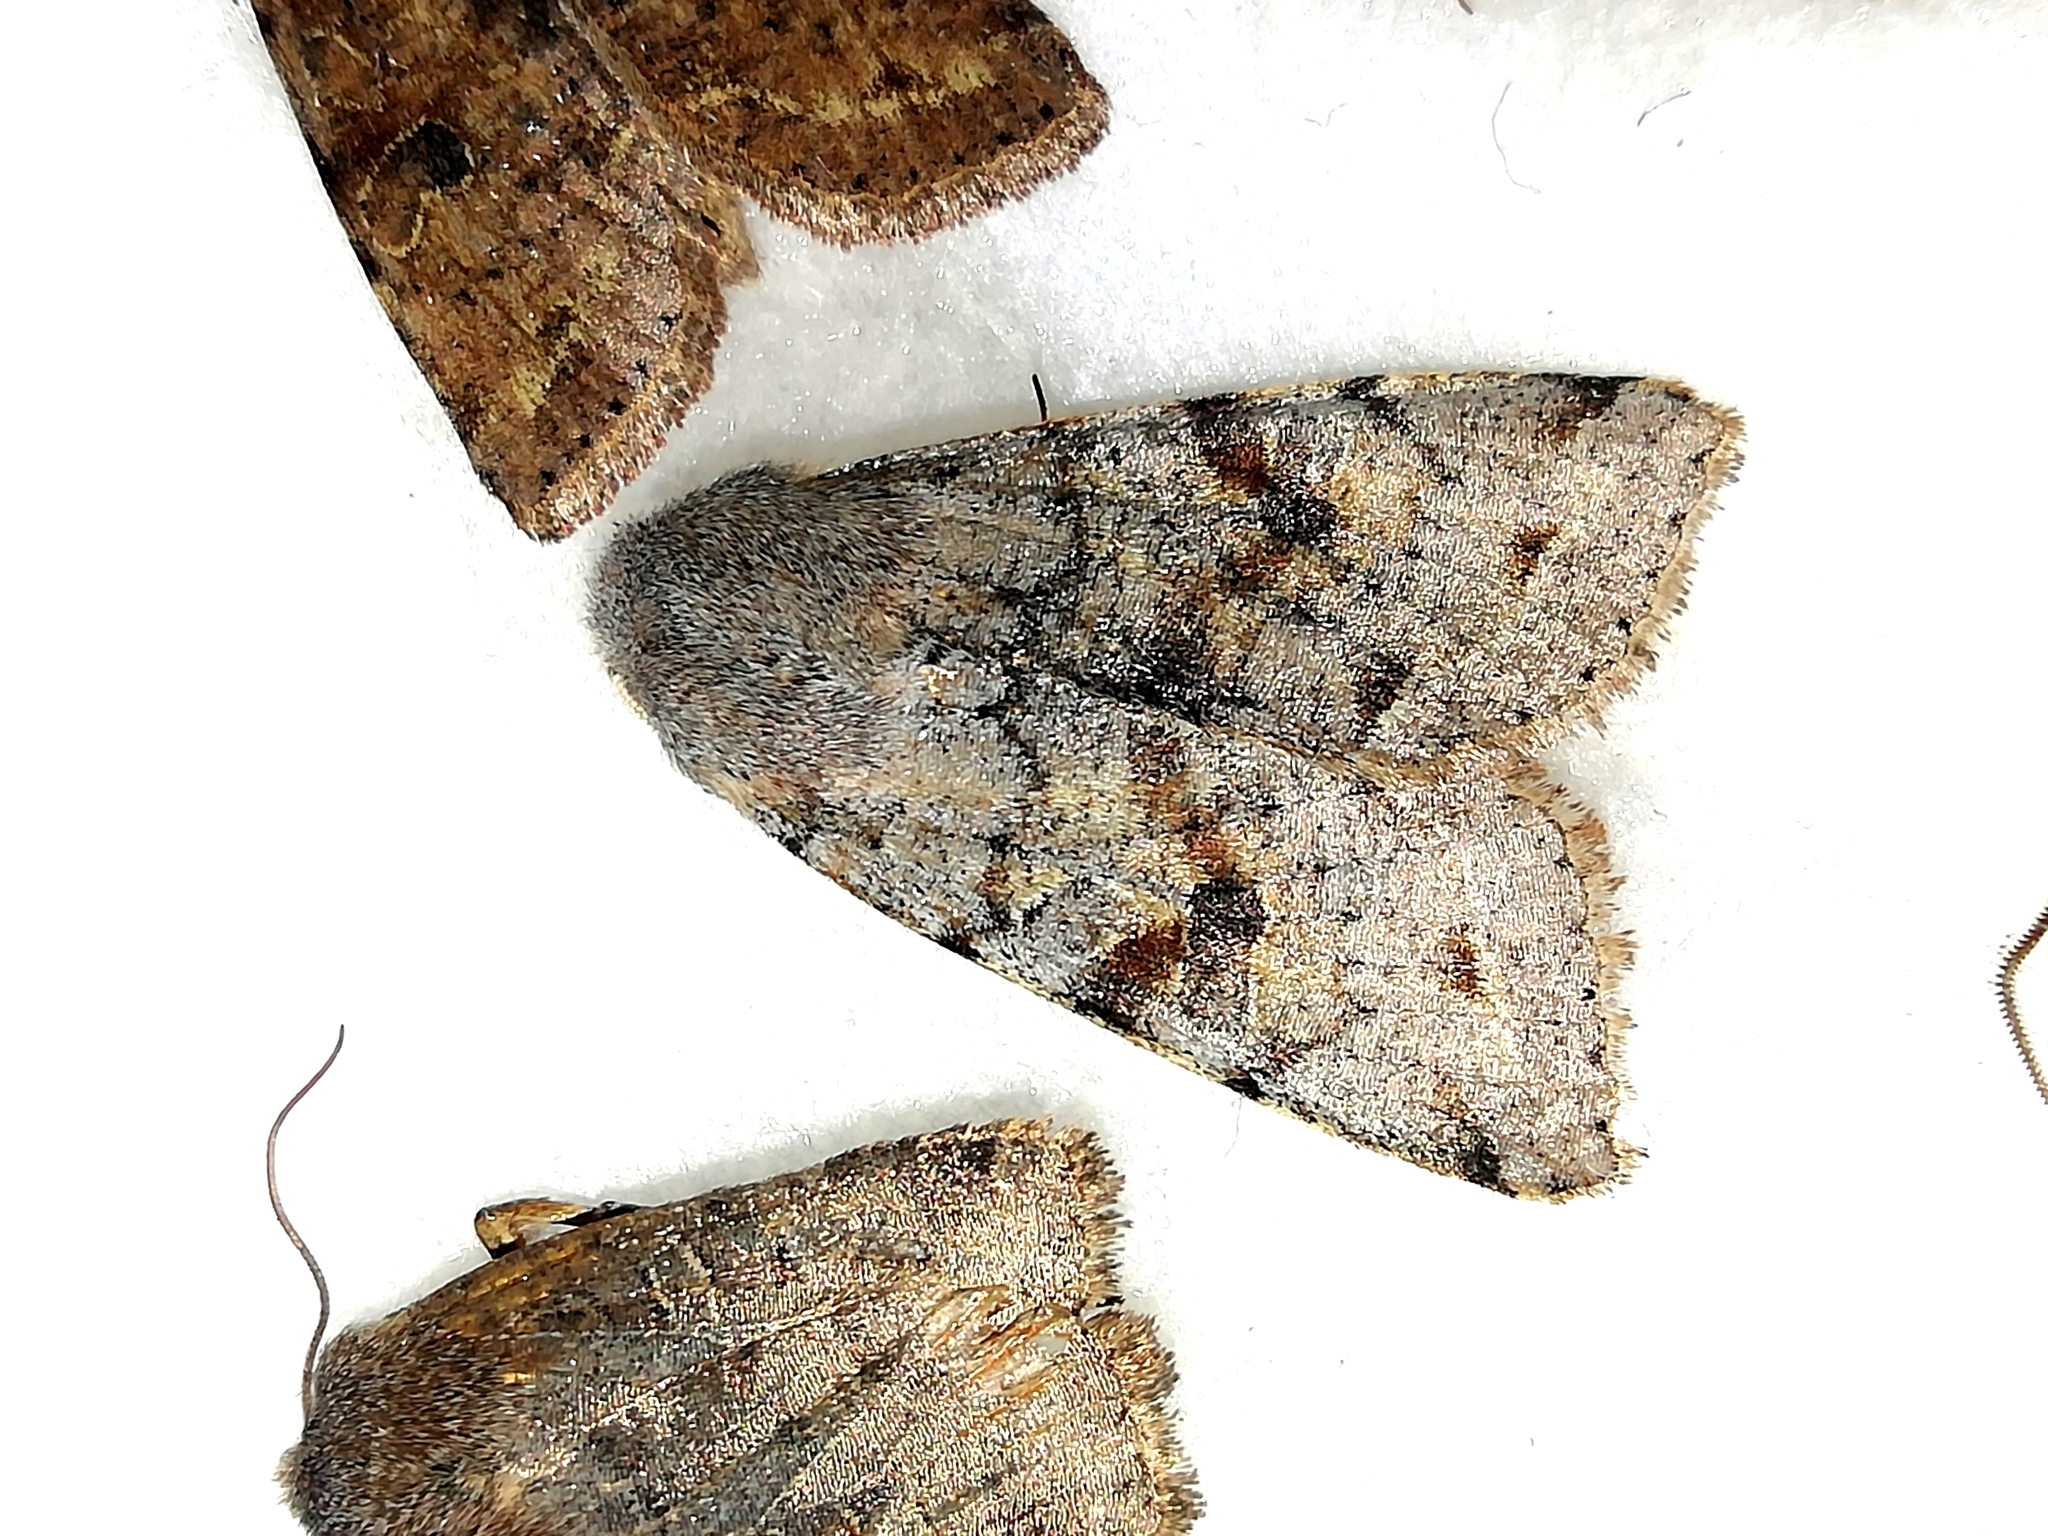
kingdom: Animalia
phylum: Arthropoda
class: Insecta
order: Lepidoptera
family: Noctuidae
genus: Orthosia
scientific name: Orthosia incerta
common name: Clouded drab
